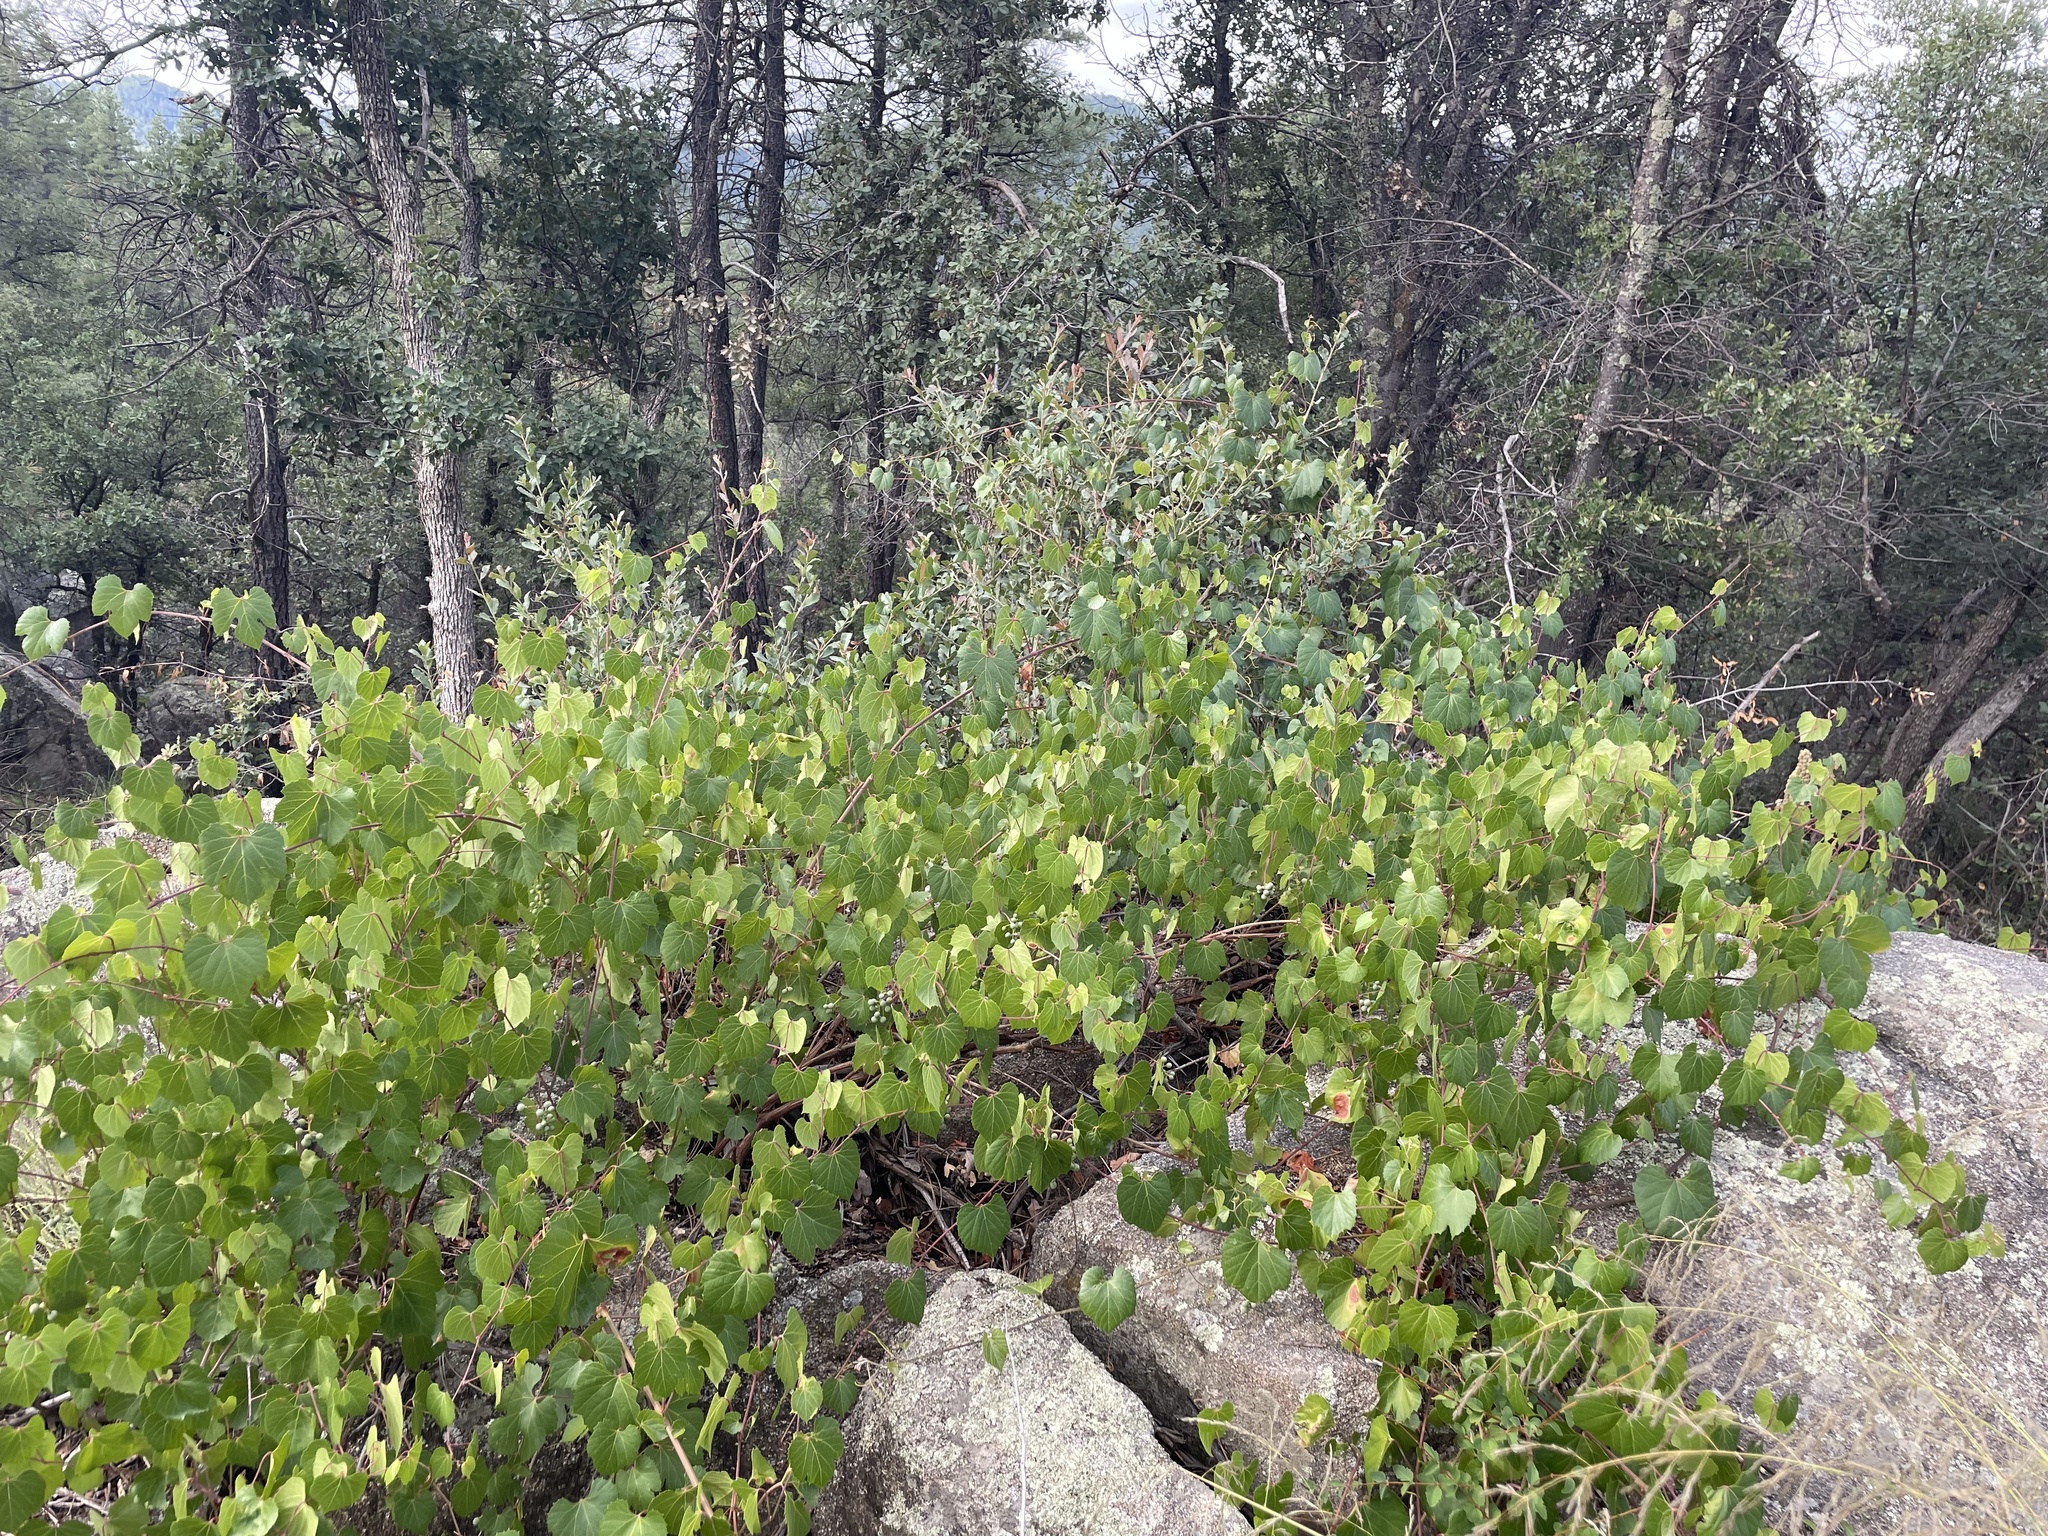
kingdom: Plantae
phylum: Tracheophyta
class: Magnoliopsida
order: Vitales
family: Vitaceae
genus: Vitis
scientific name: Vitis arizonica
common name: Canyon grape
